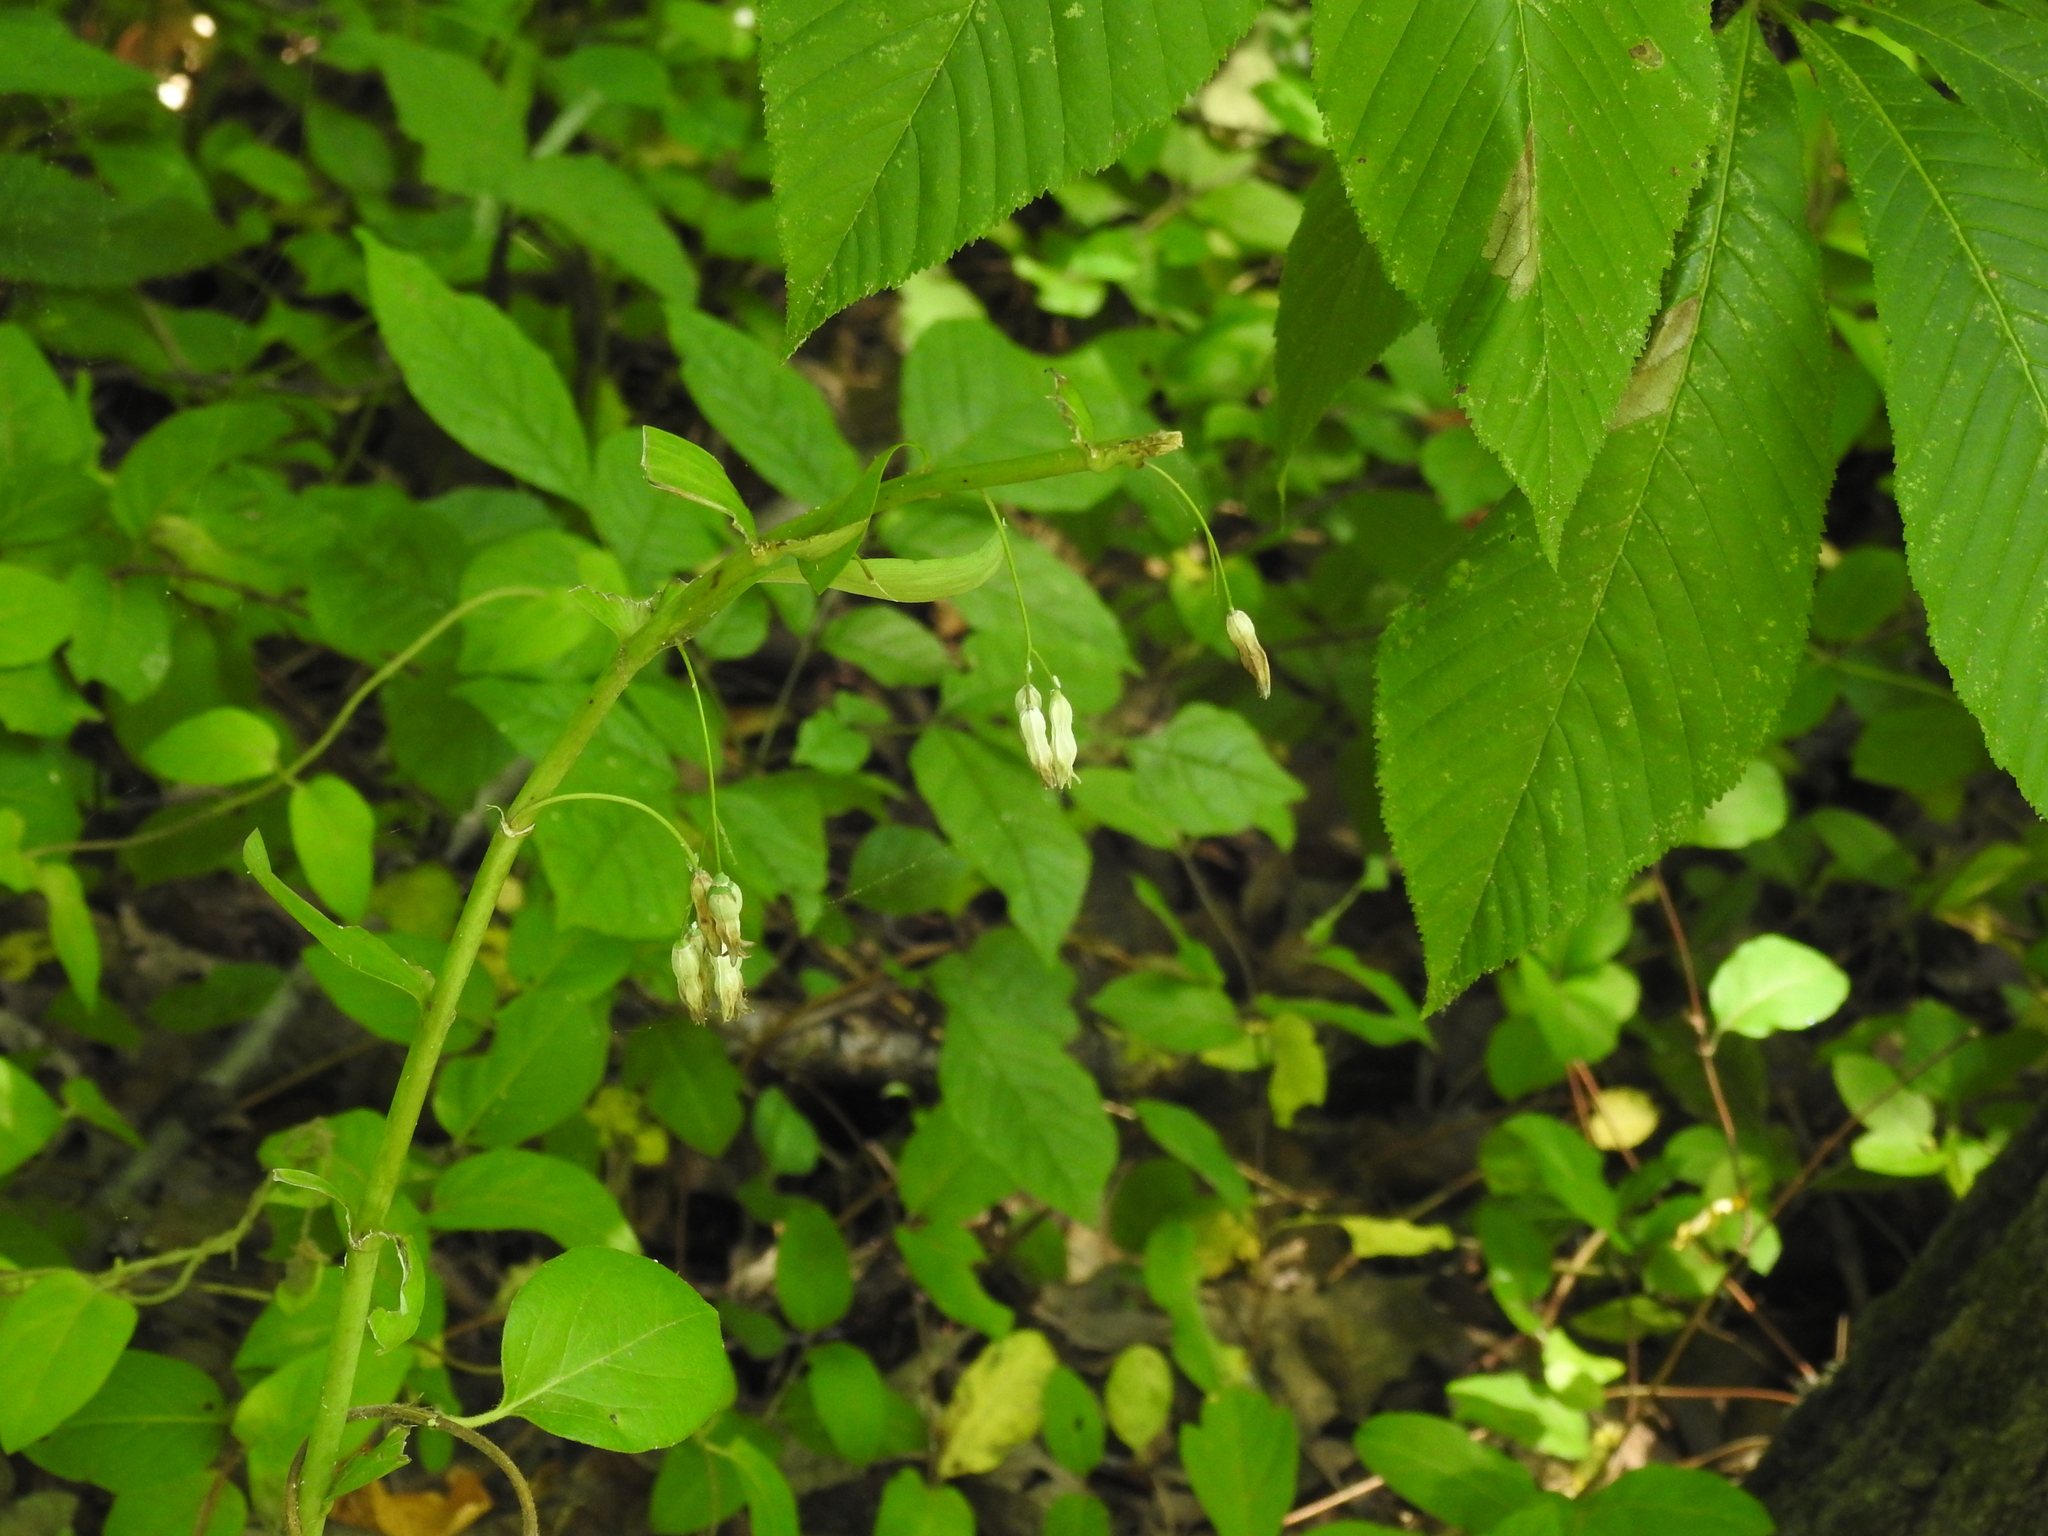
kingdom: Plantae
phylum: Tracheophyta
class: Liliopsida
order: Asparagales
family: Asparagaceae
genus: Polygonatum
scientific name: Polygonatum
